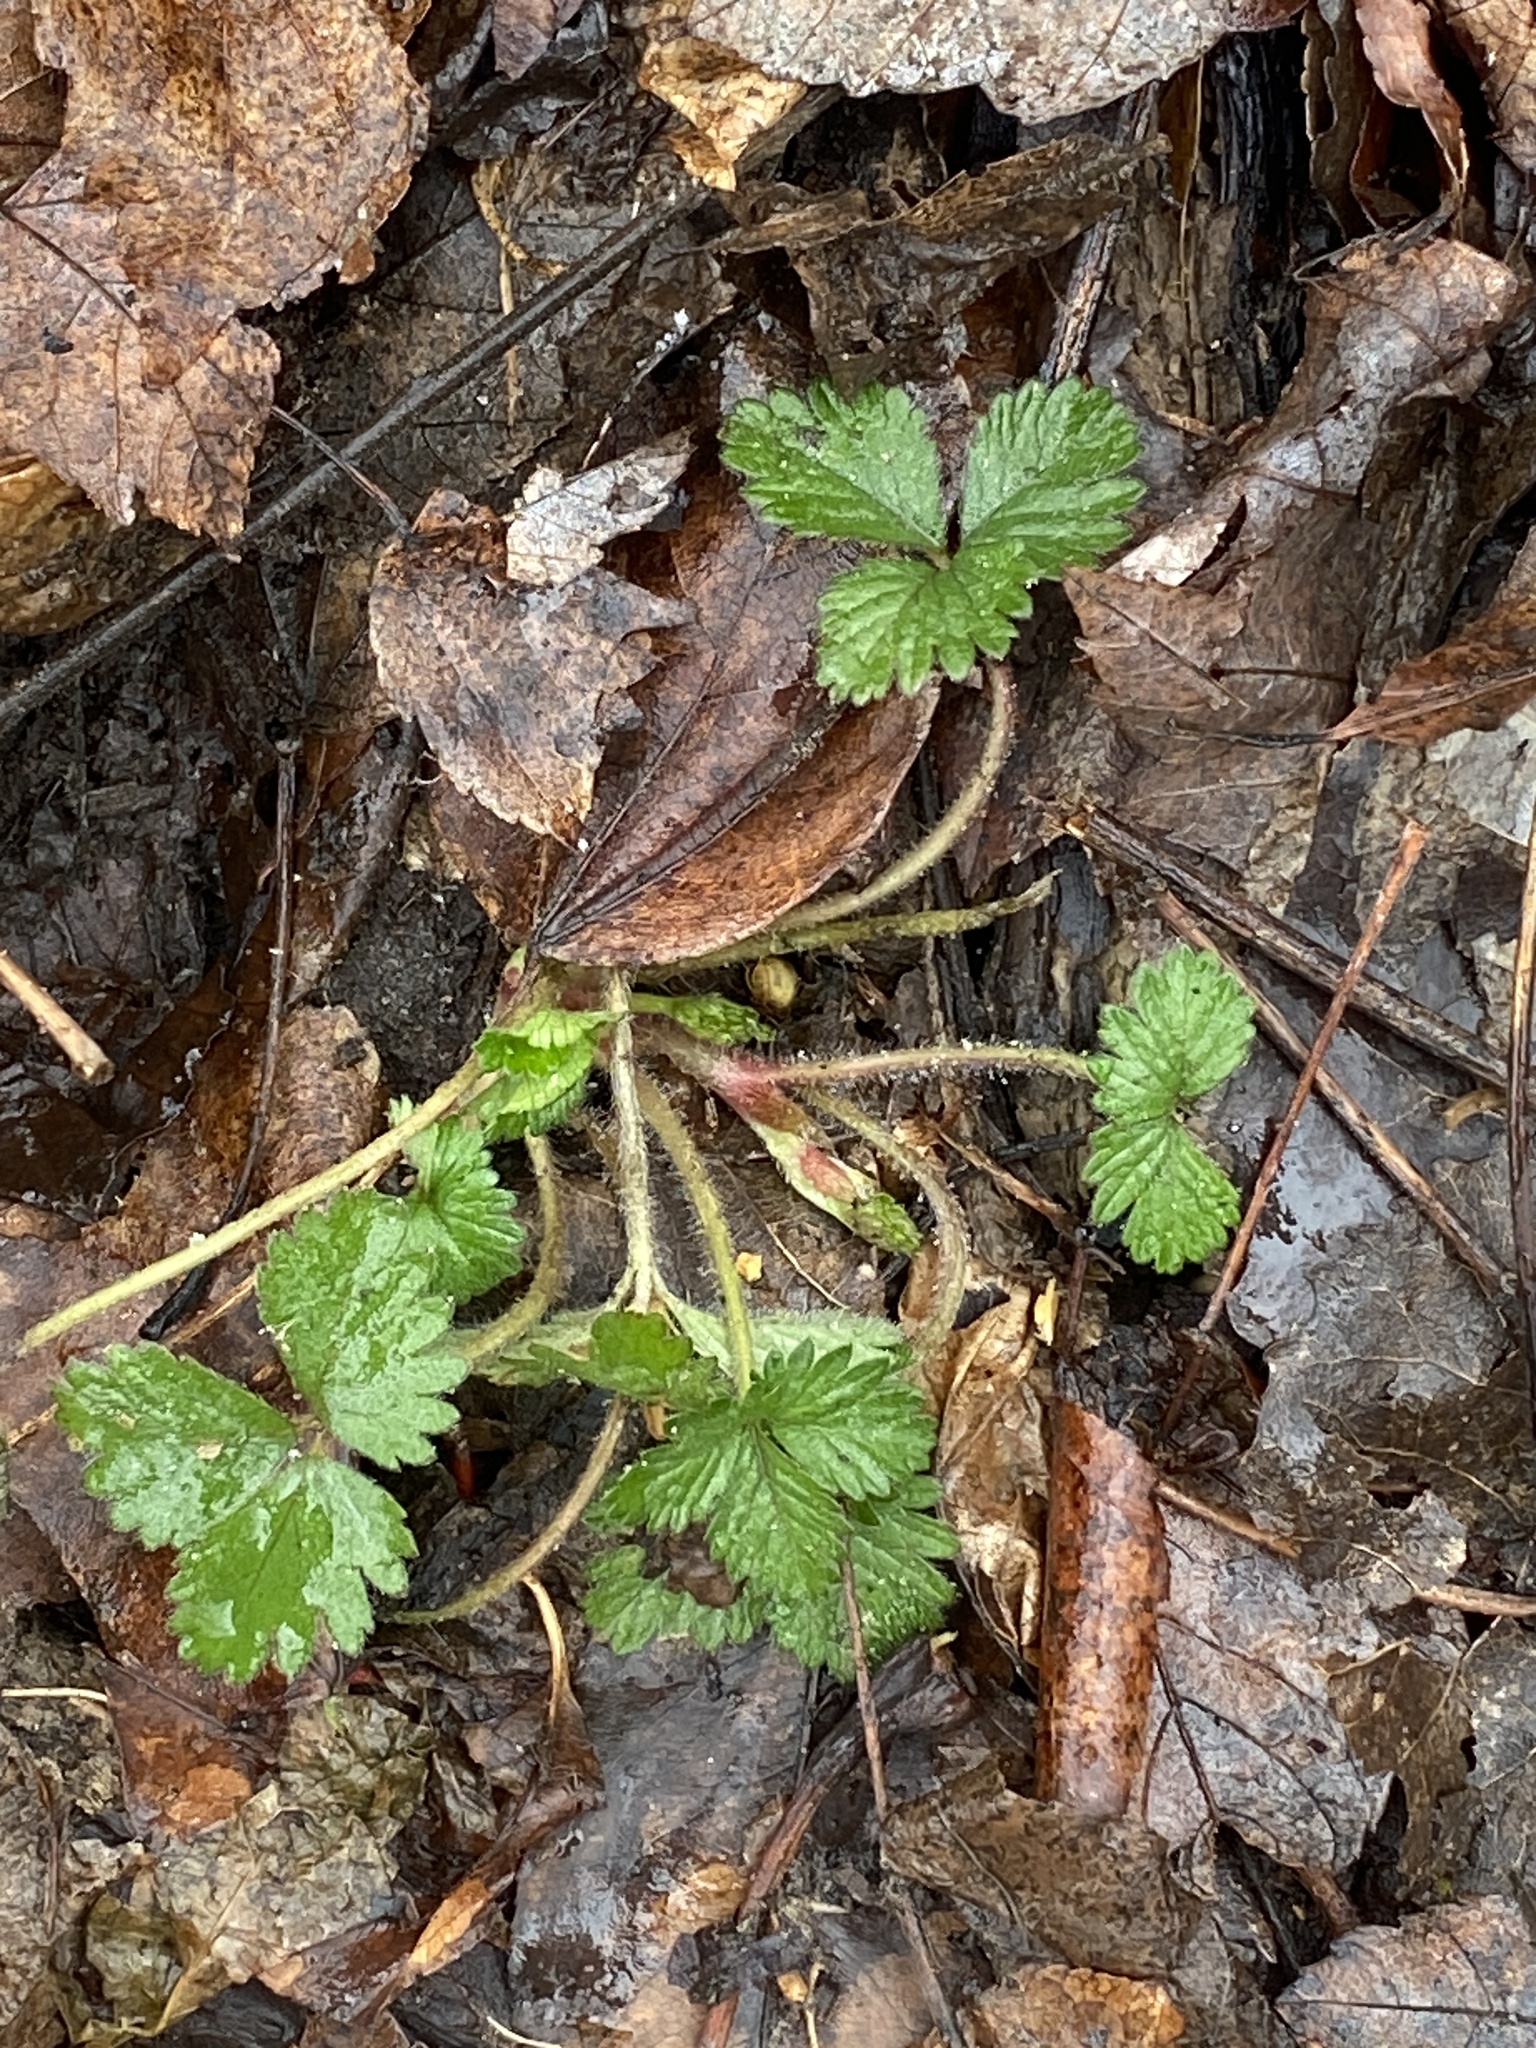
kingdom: Plantae
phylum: Tracheophyta
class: Magnoliopsida
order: Rosales
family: Rosaceae
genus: Potentilla
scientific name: Potentilla indica
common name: Yellow-flowered strawberry
